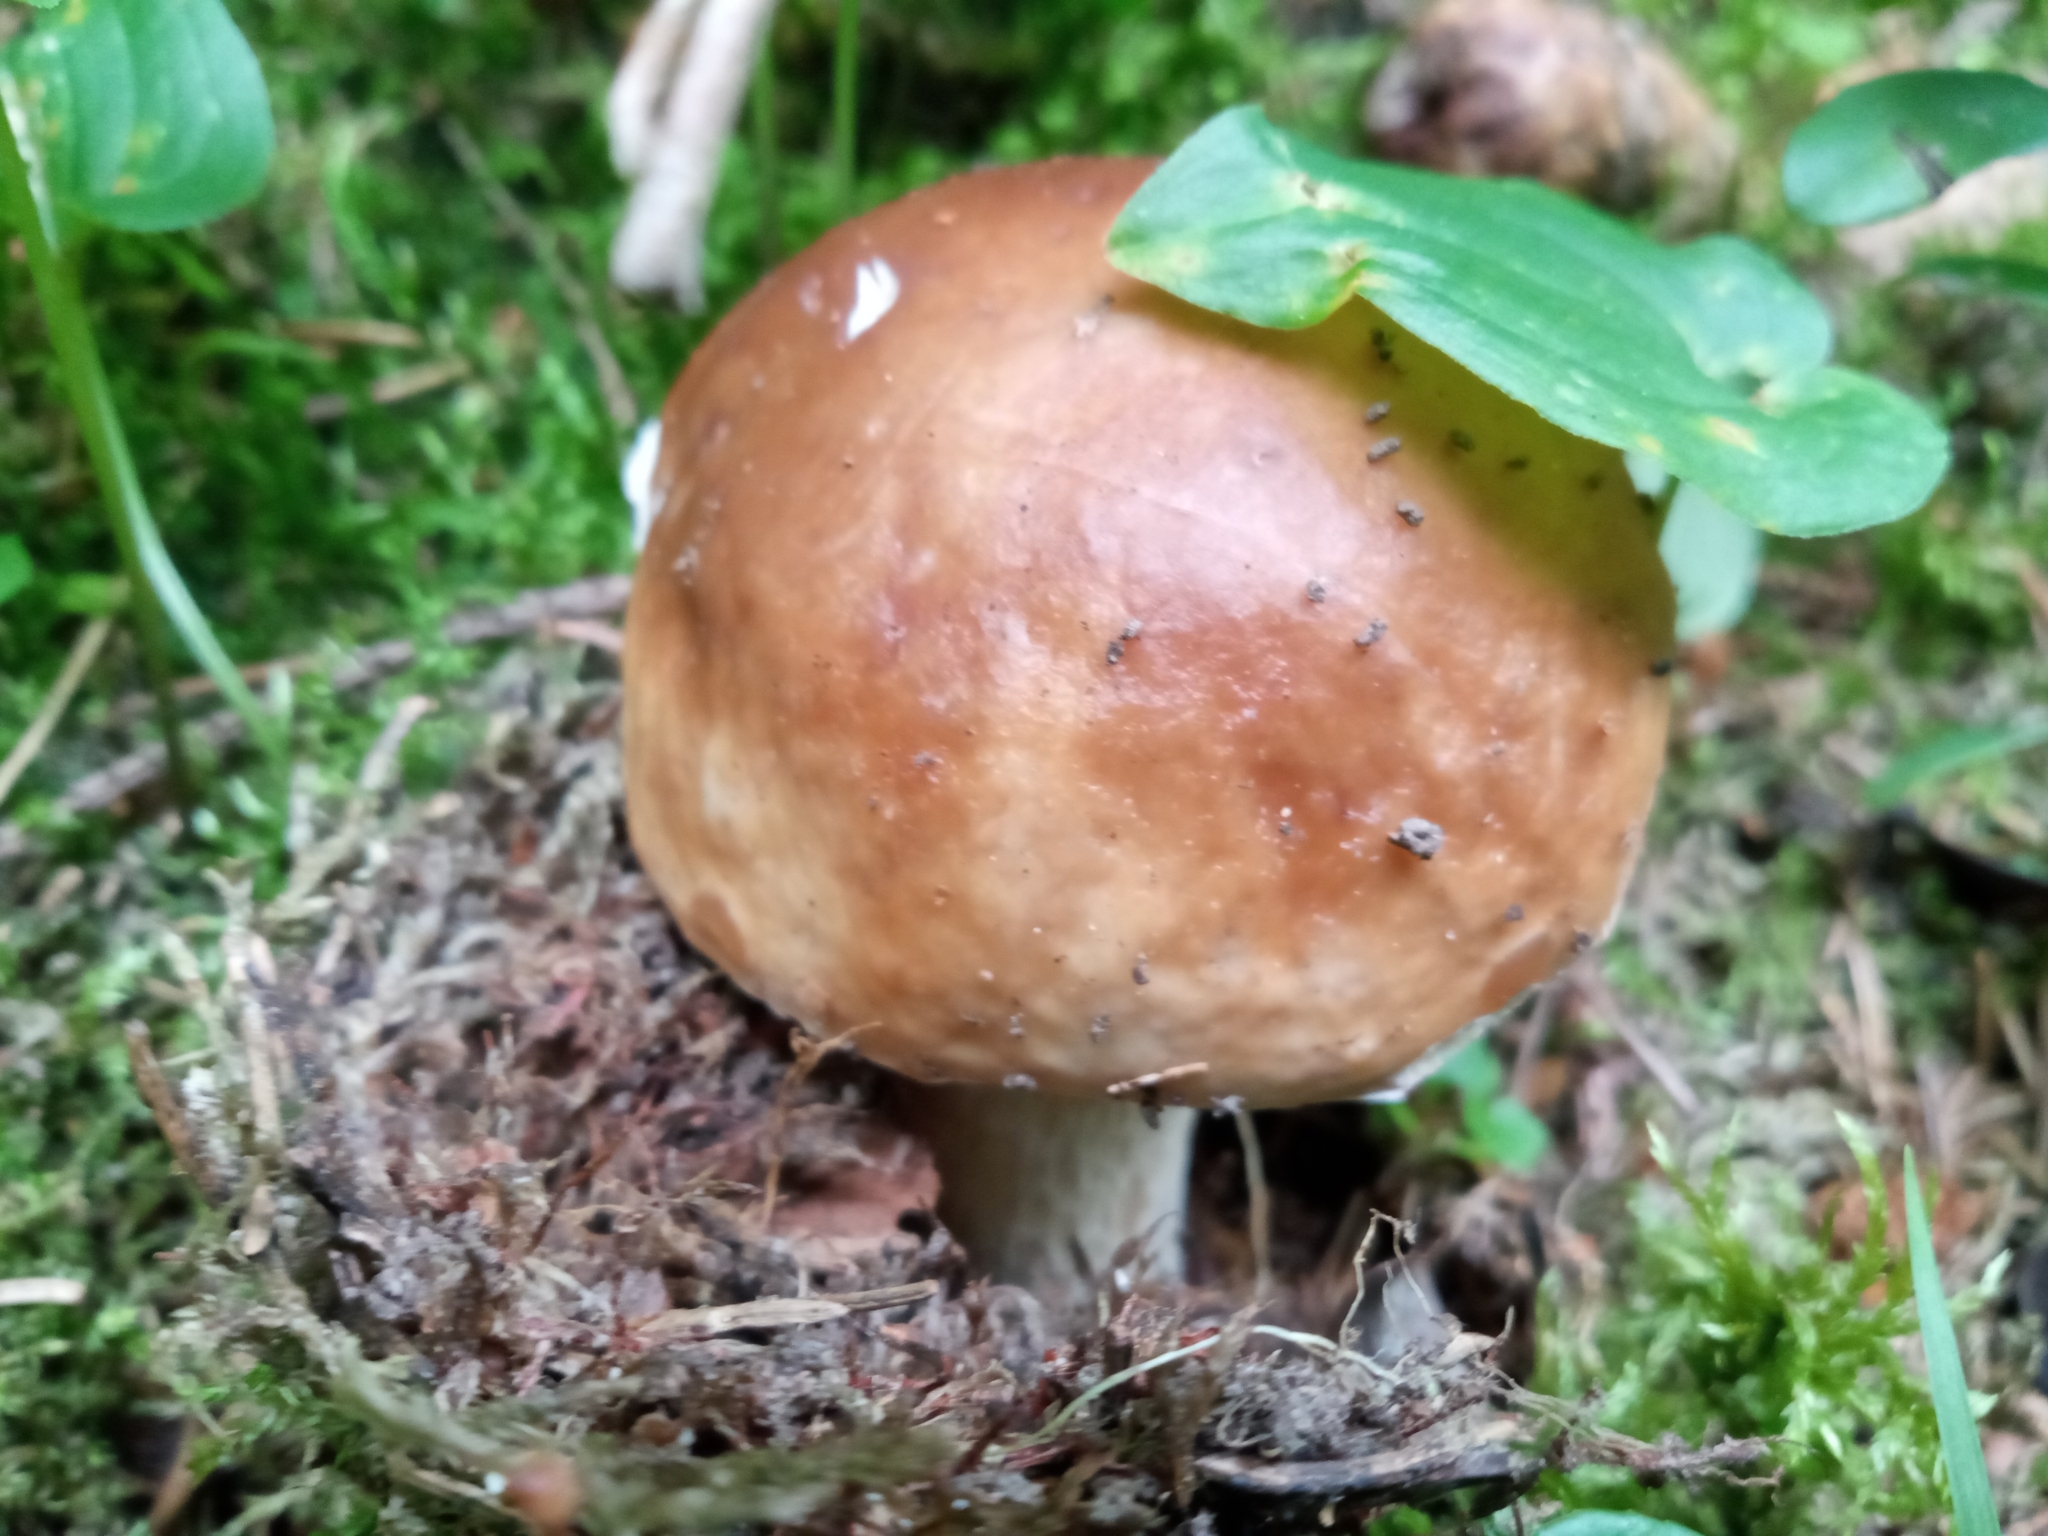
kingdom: Fungi
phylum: Basidiomycota
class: Agaricomycetes
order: Boletales
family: Boletaceae
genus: Boletus
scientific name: Boletus edulis
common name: Cep
